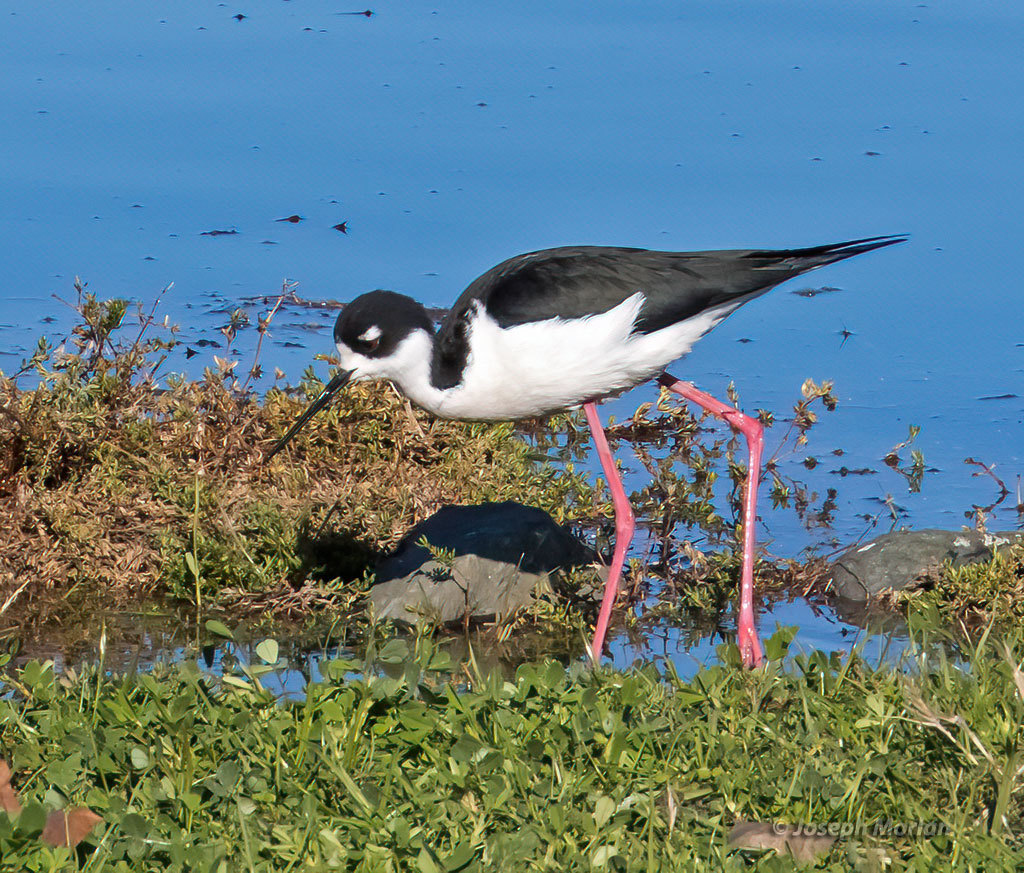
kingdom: Animalia
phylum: Chordata
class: Aves
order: Charadriiformes
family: Recurvirostridae
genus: Himantopus
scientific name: Himantopus mexicanus
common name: Black-necked stilt
